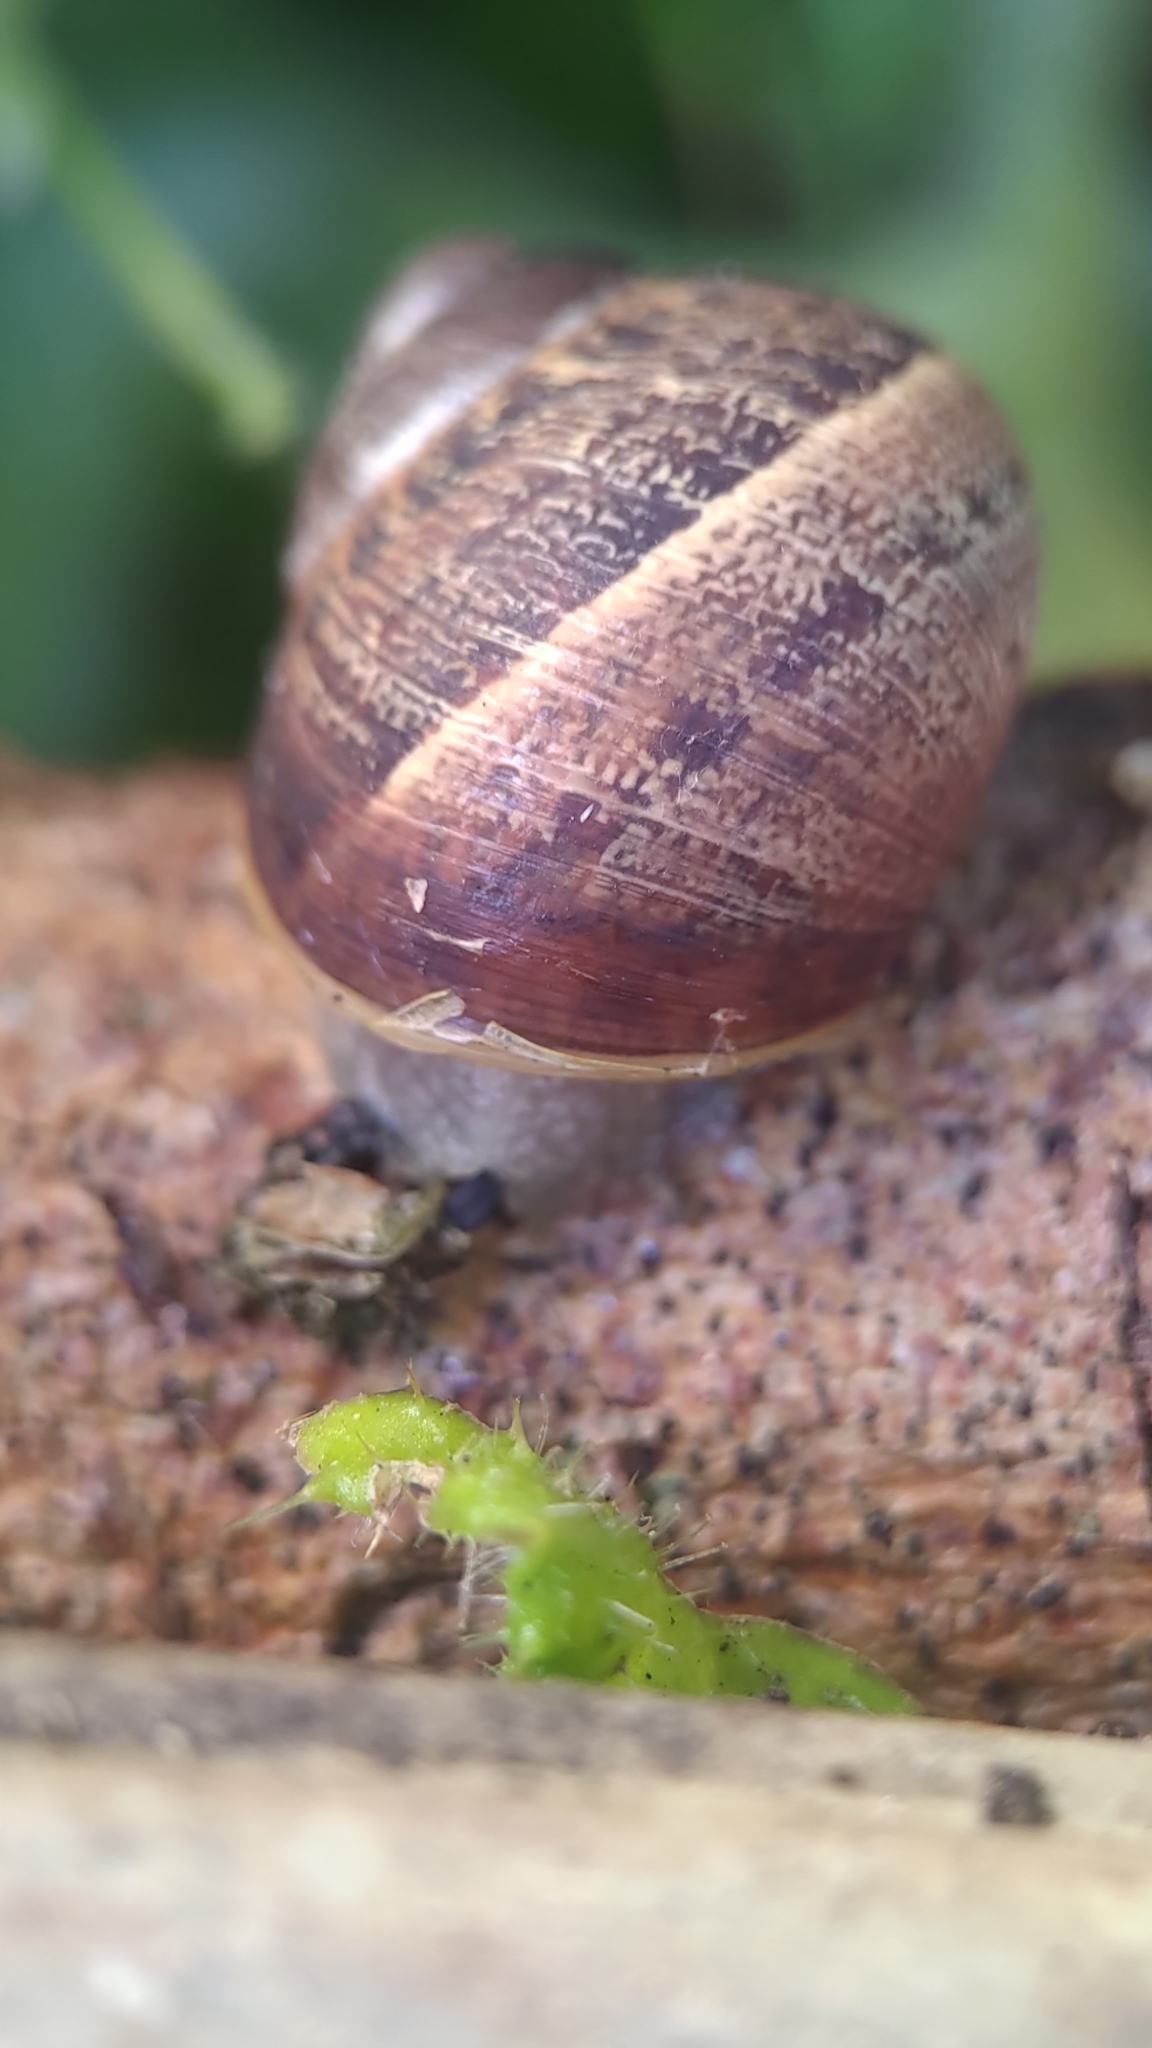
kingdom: Animalia
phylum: Mollusca
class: Gastropoda
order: Stylommatophora
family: Helicidae
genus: Cornu
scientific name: Cornu aspersum
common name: Brown garden snail
